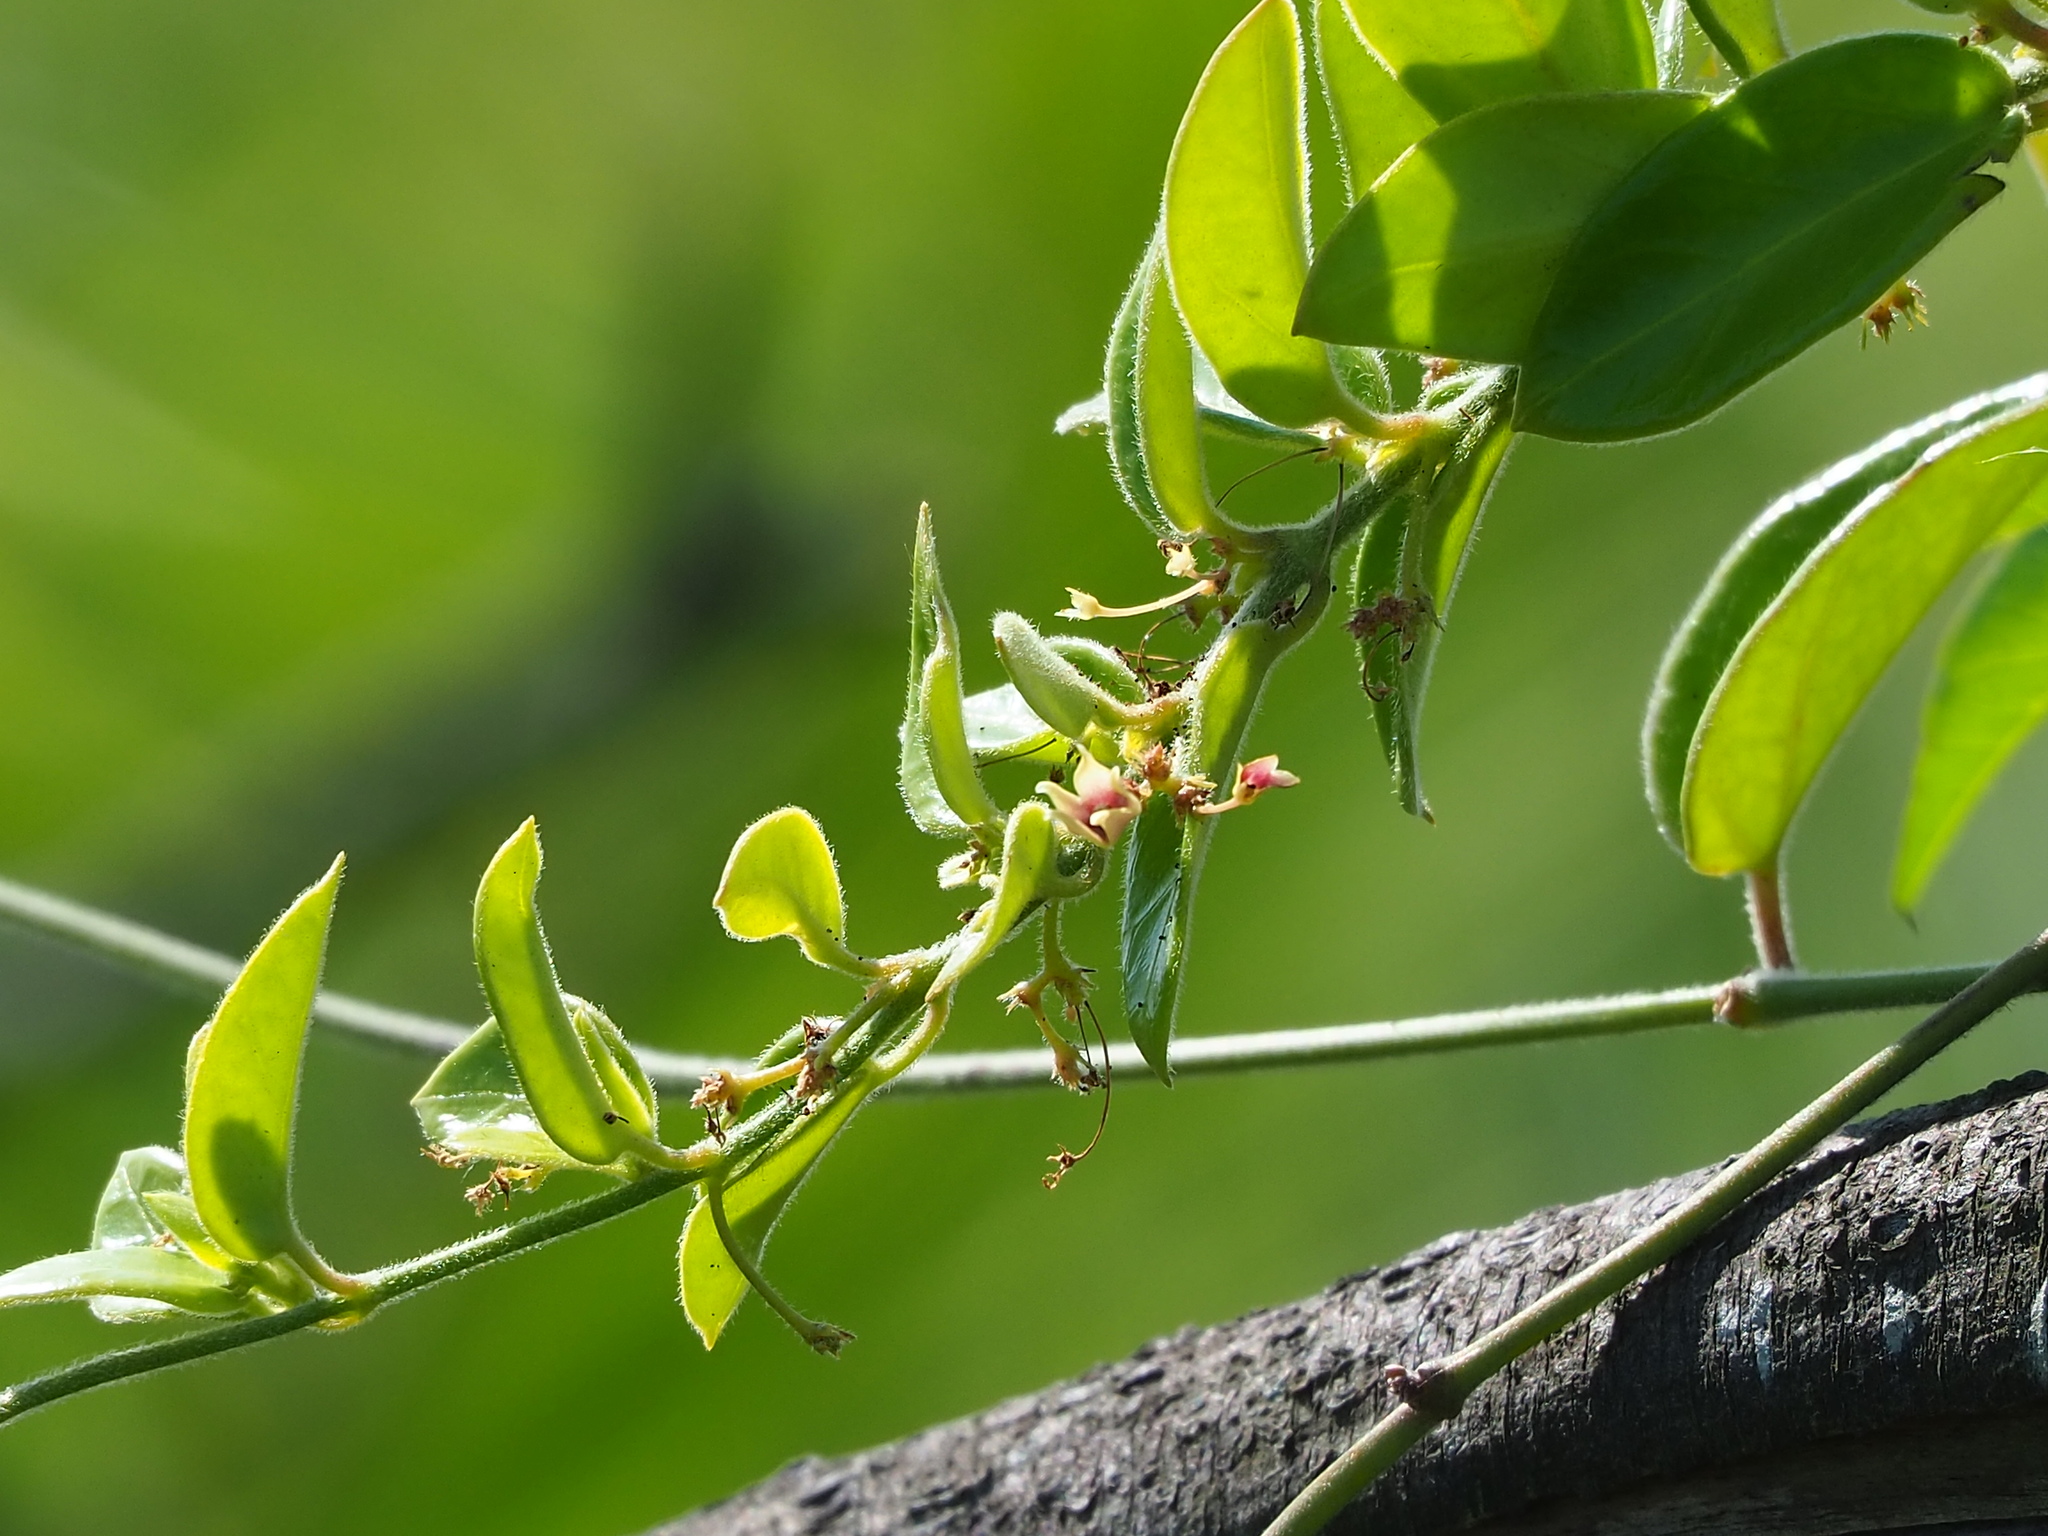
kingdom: Plantae
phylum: Tracheophyta
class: Magnoliopsida
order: Gentianales
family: Apocynaceae
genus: Vincetoxicum
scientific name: Vincetoxicum hirsutum
